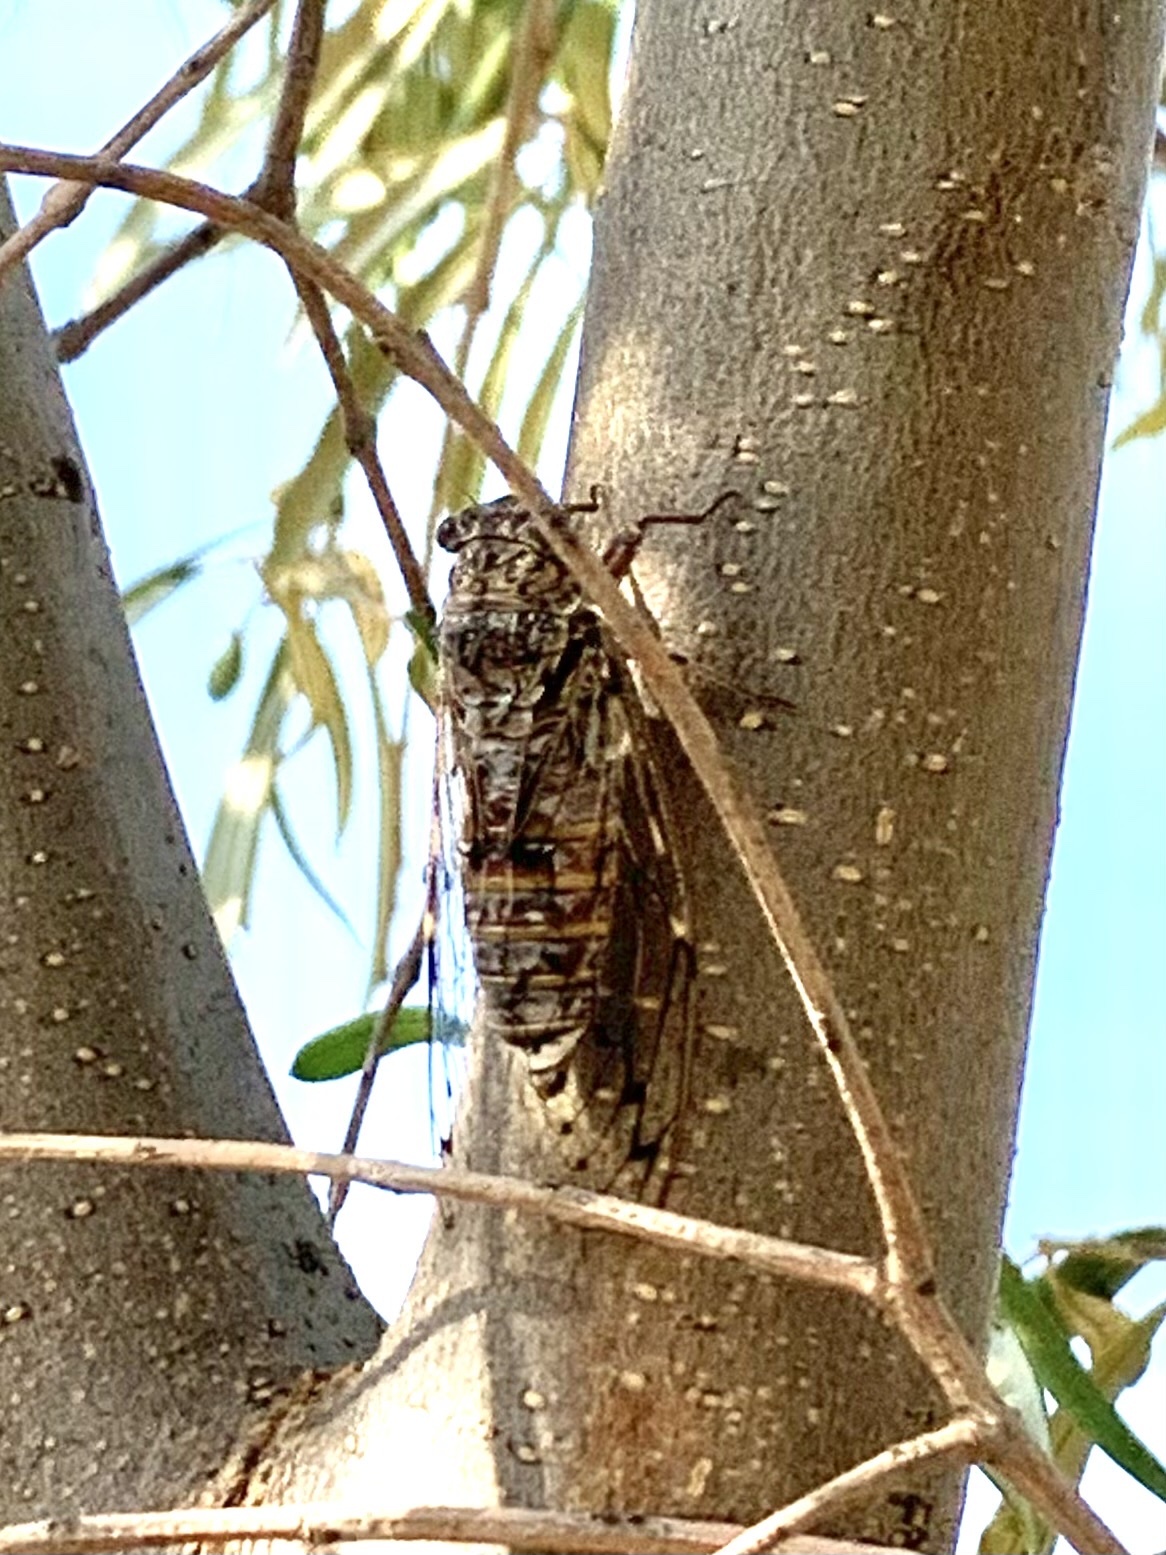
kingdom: Animalia
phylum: Arthropoda
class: Insecta
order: Hemiptera
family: Cicadidae
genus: Cicada
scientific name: Cicada mordoganensis
